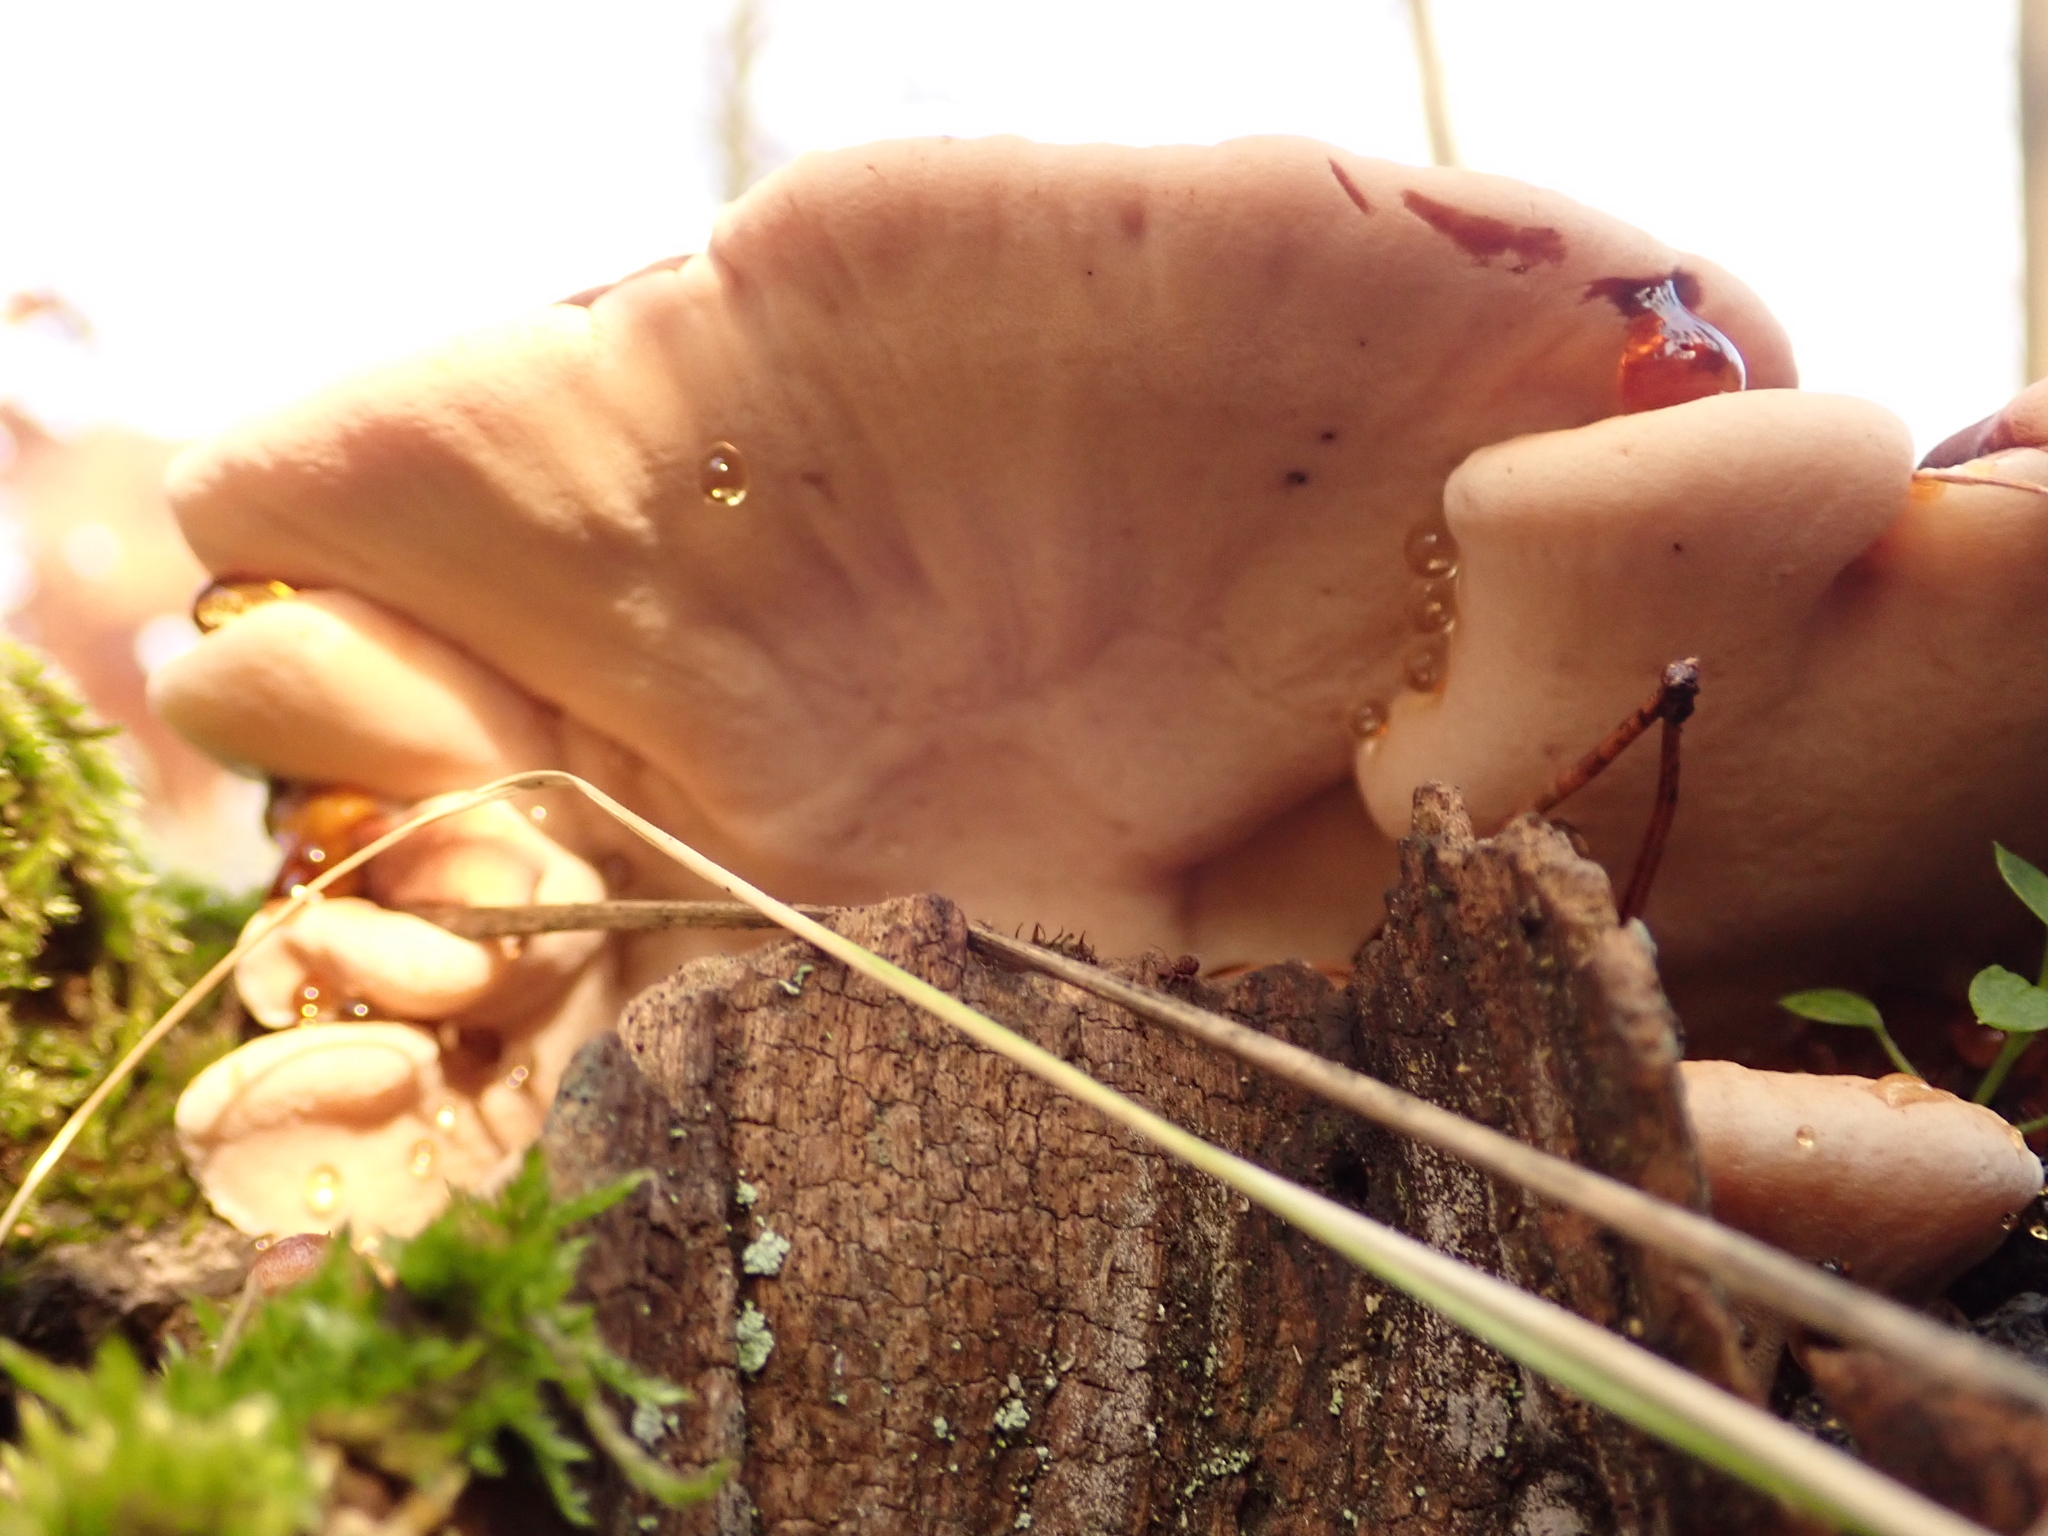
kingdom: Fungi
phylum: Basidiomycota
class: Agaricomycetes
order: Polyporales
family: Ischnodermataceae
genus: Ischnoderma
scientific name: Ischnoderma resinosum
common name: Resinous polypore
